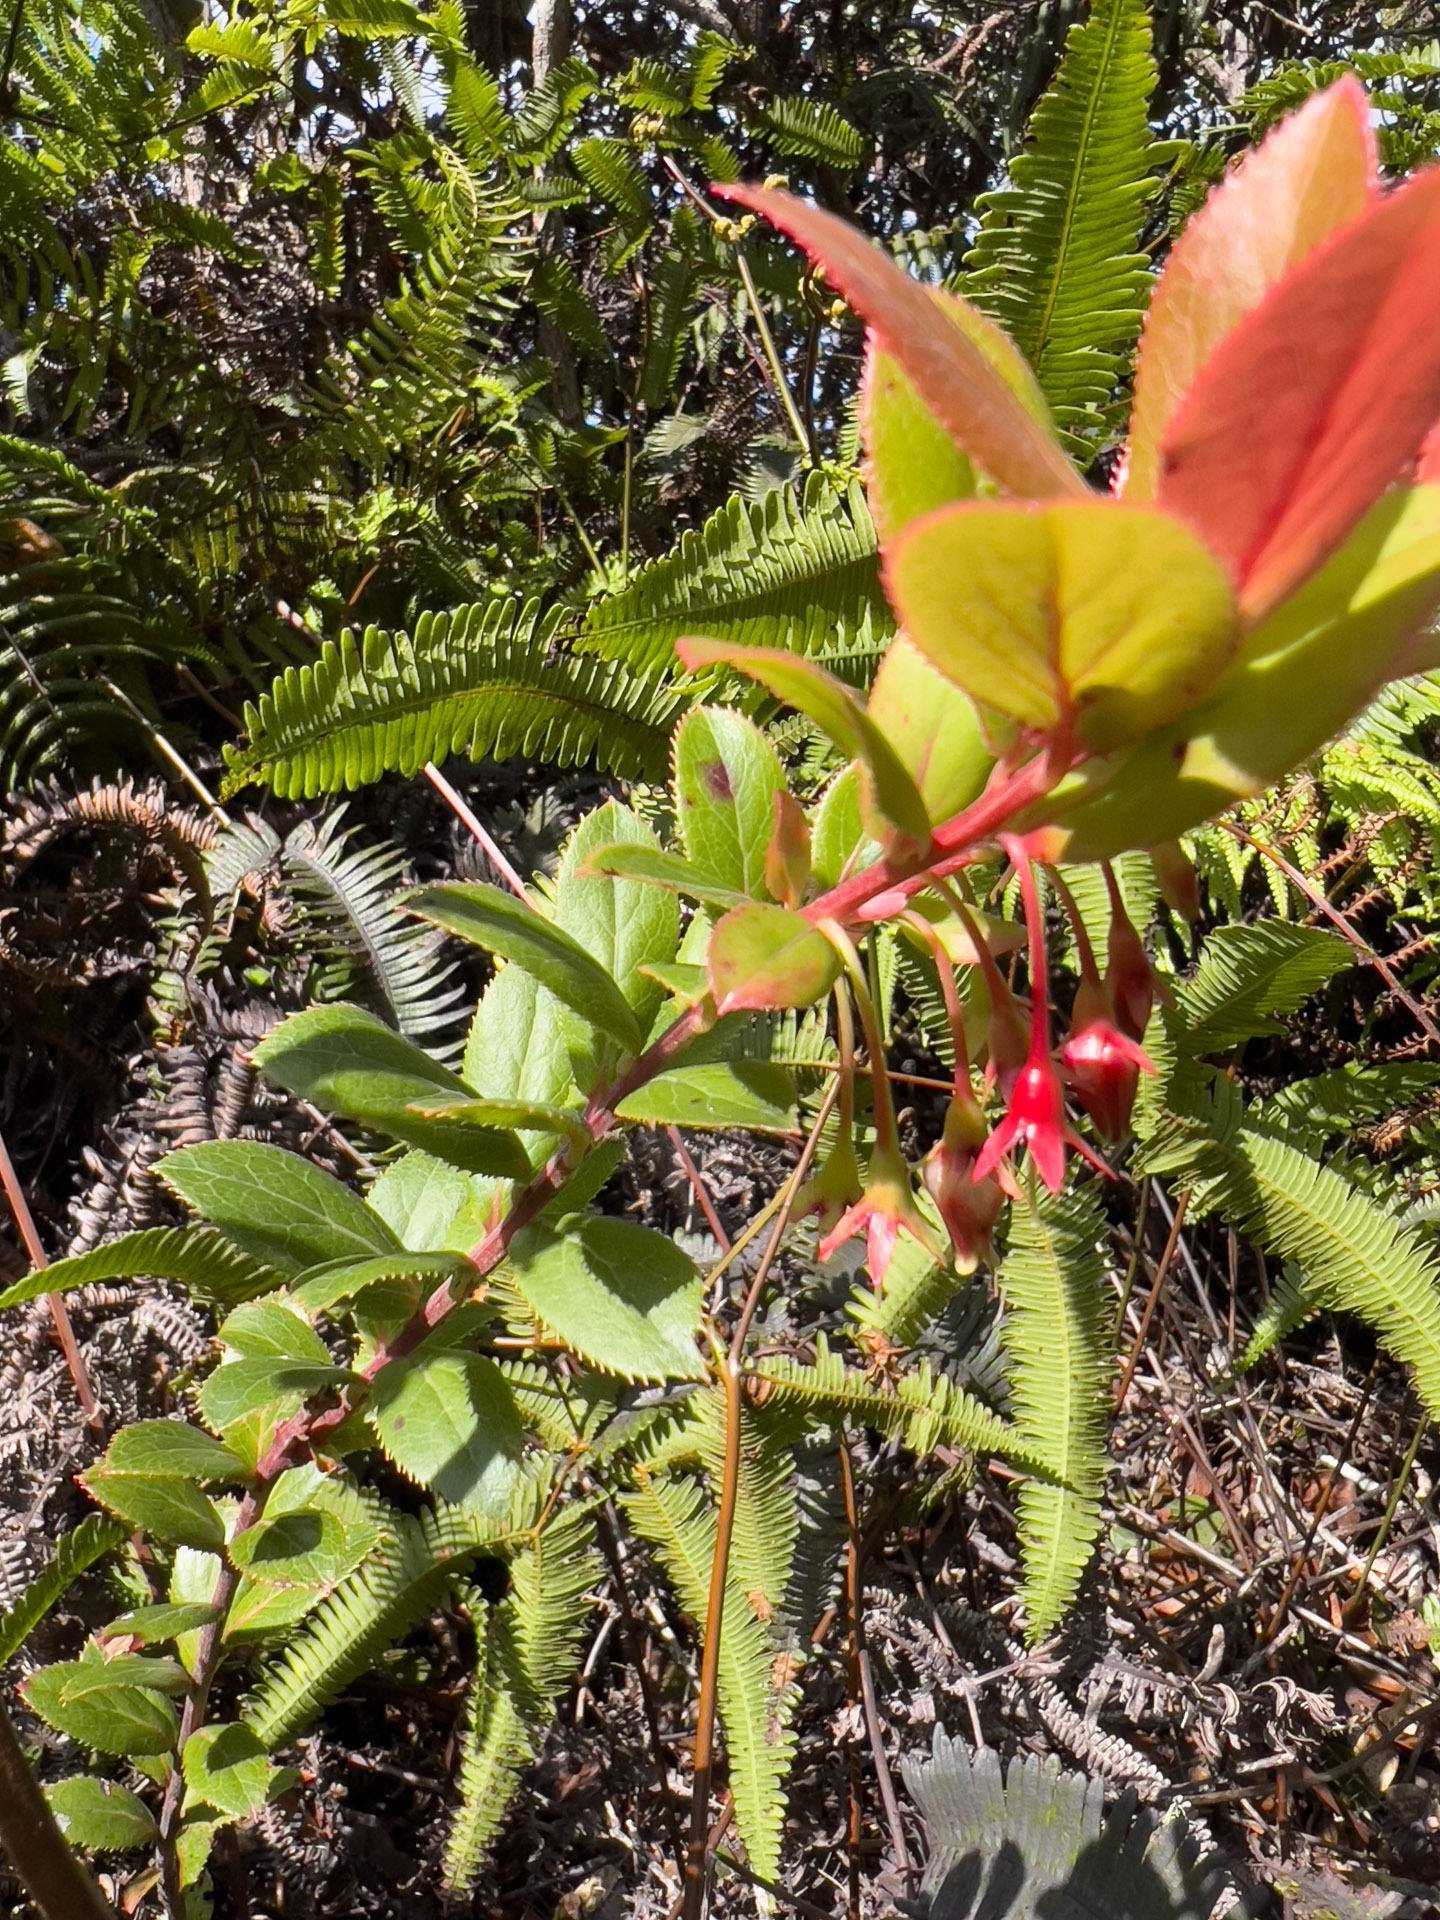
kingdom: Plantae
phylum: Tracheophyta
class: Magnoliopsida
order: Ericales
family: Ericaceae
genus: Vaccinium
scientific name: Vaccinium dentatum
